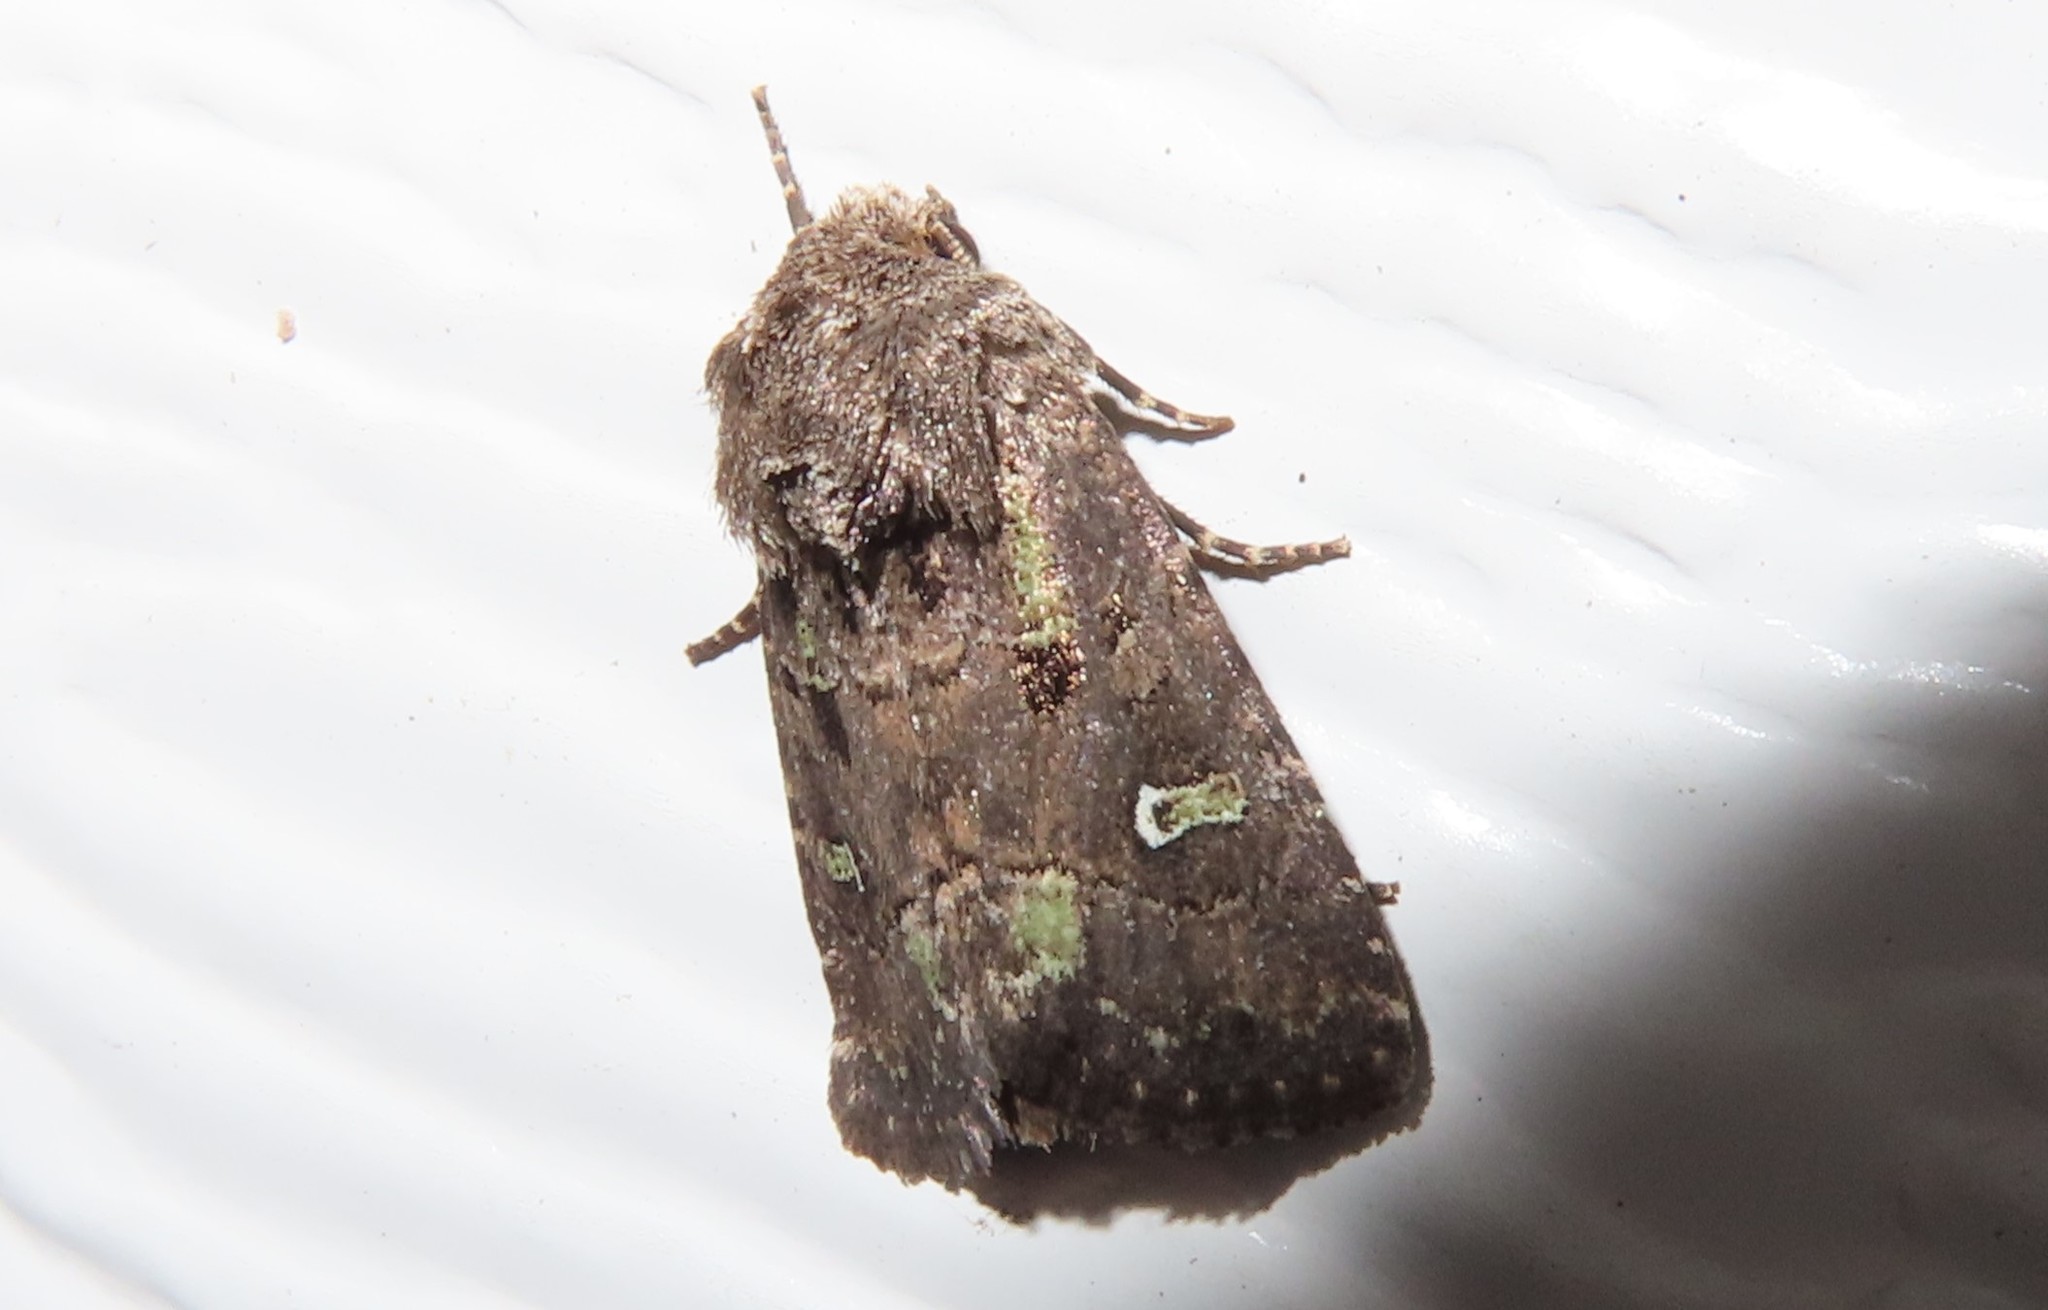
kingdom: Animalia
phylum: Arthropoda
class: Insecta
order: Lepidoptera
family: Noctuidae
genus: Lacinipolia
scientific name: Lacinipolia renigera
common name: Kidney-spotted minor
